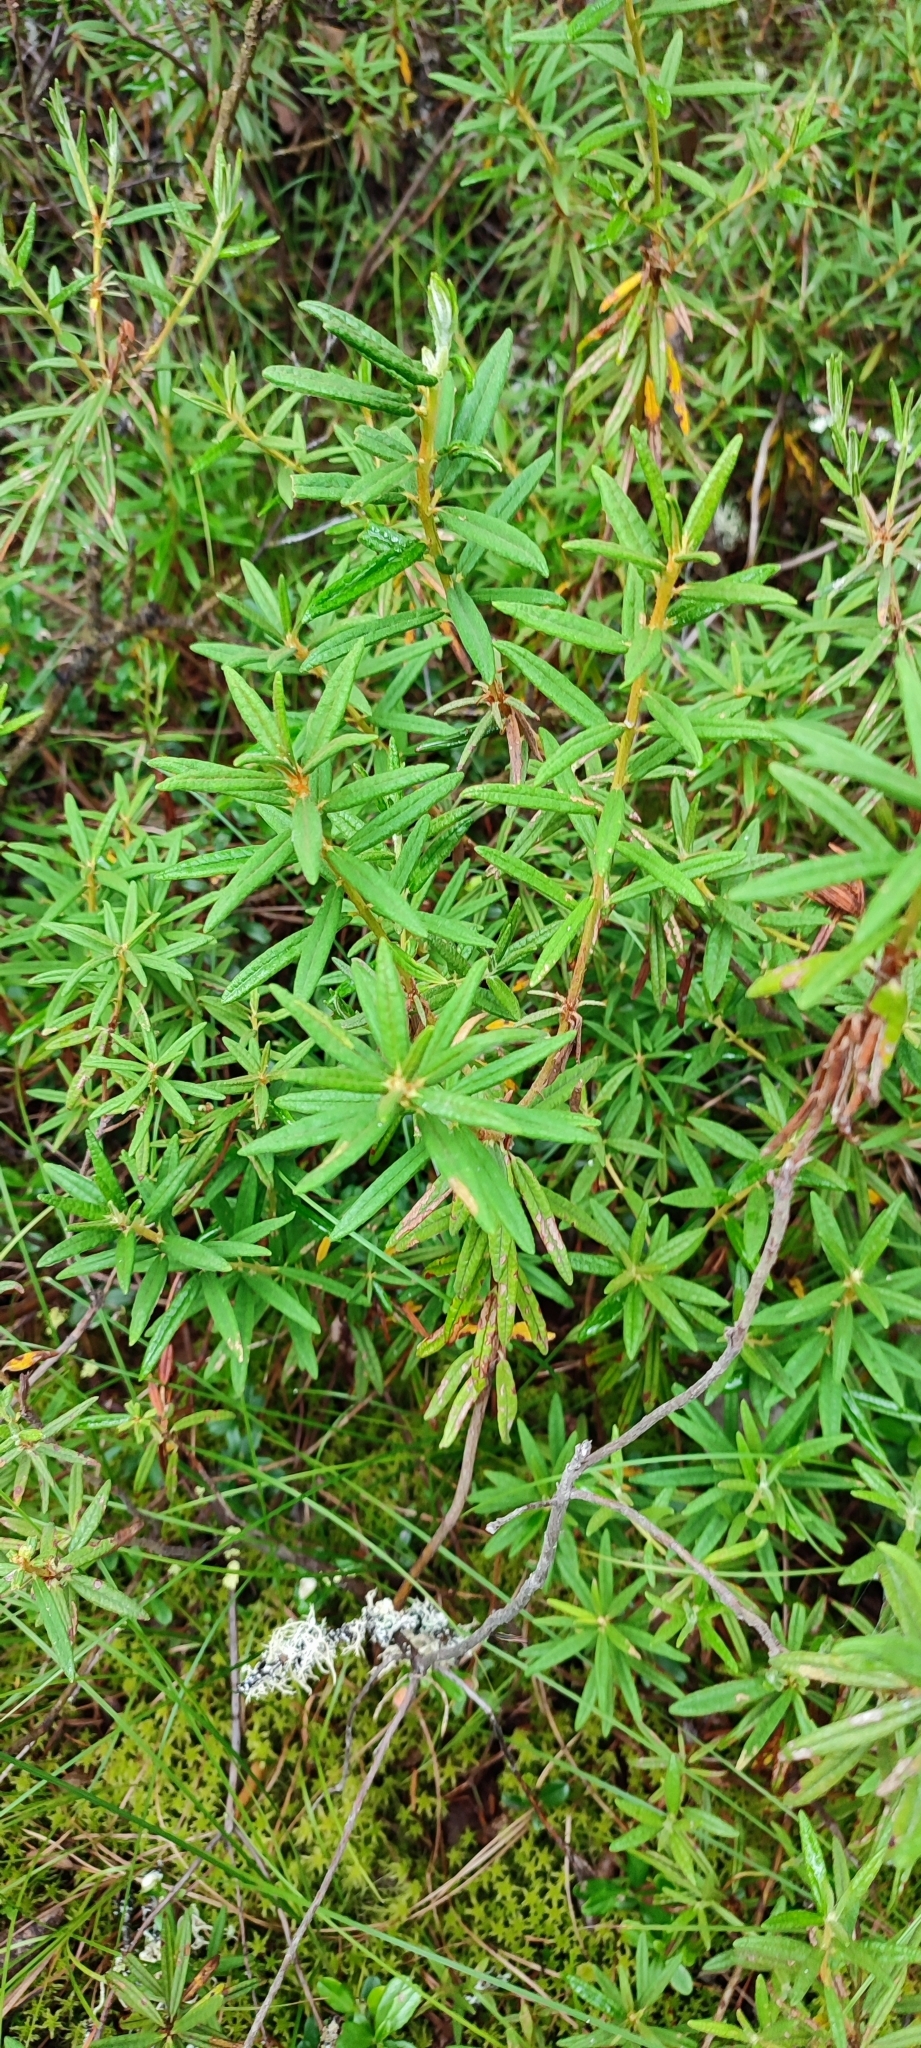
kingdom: Plantae
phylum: Tracheophyta
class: Magnoliopsida
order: Ericales
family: Ericaceae
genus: Rhododendron
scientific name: Rhododendron tomentosum
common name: Marsh labrador tea
